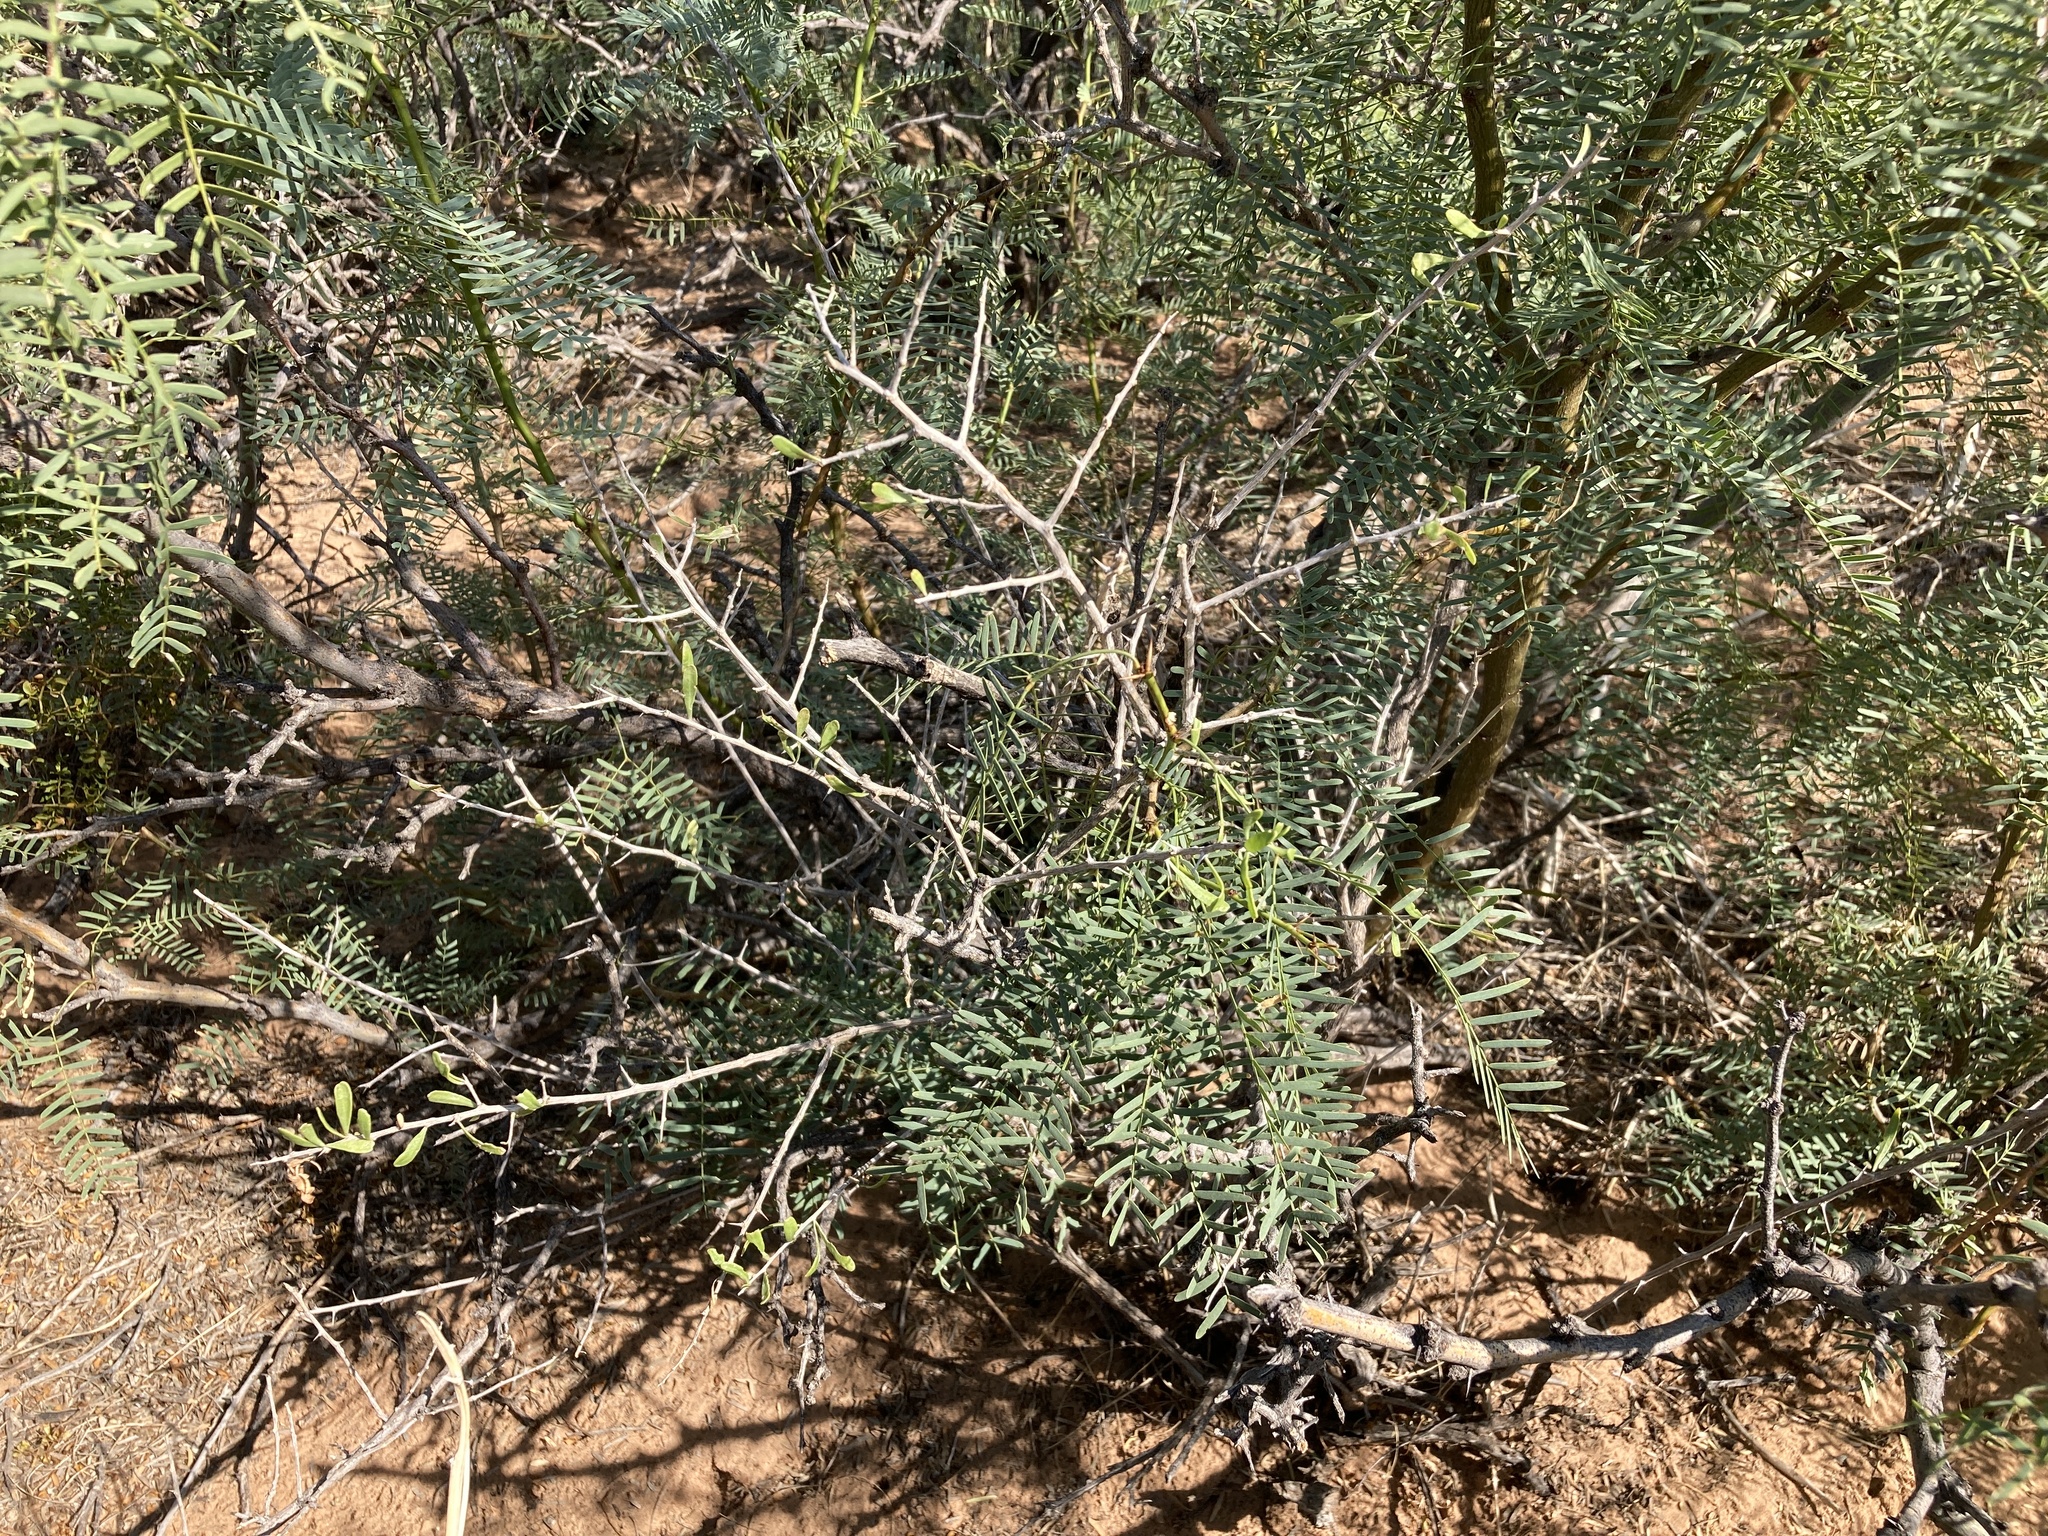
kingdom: Plantae
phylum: Tracheophyta
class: Magnoliopsida
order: Solanales
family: Solanaceae
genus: Lycium
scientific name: Lycium berlandieri
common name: Berlandier wolfberry
